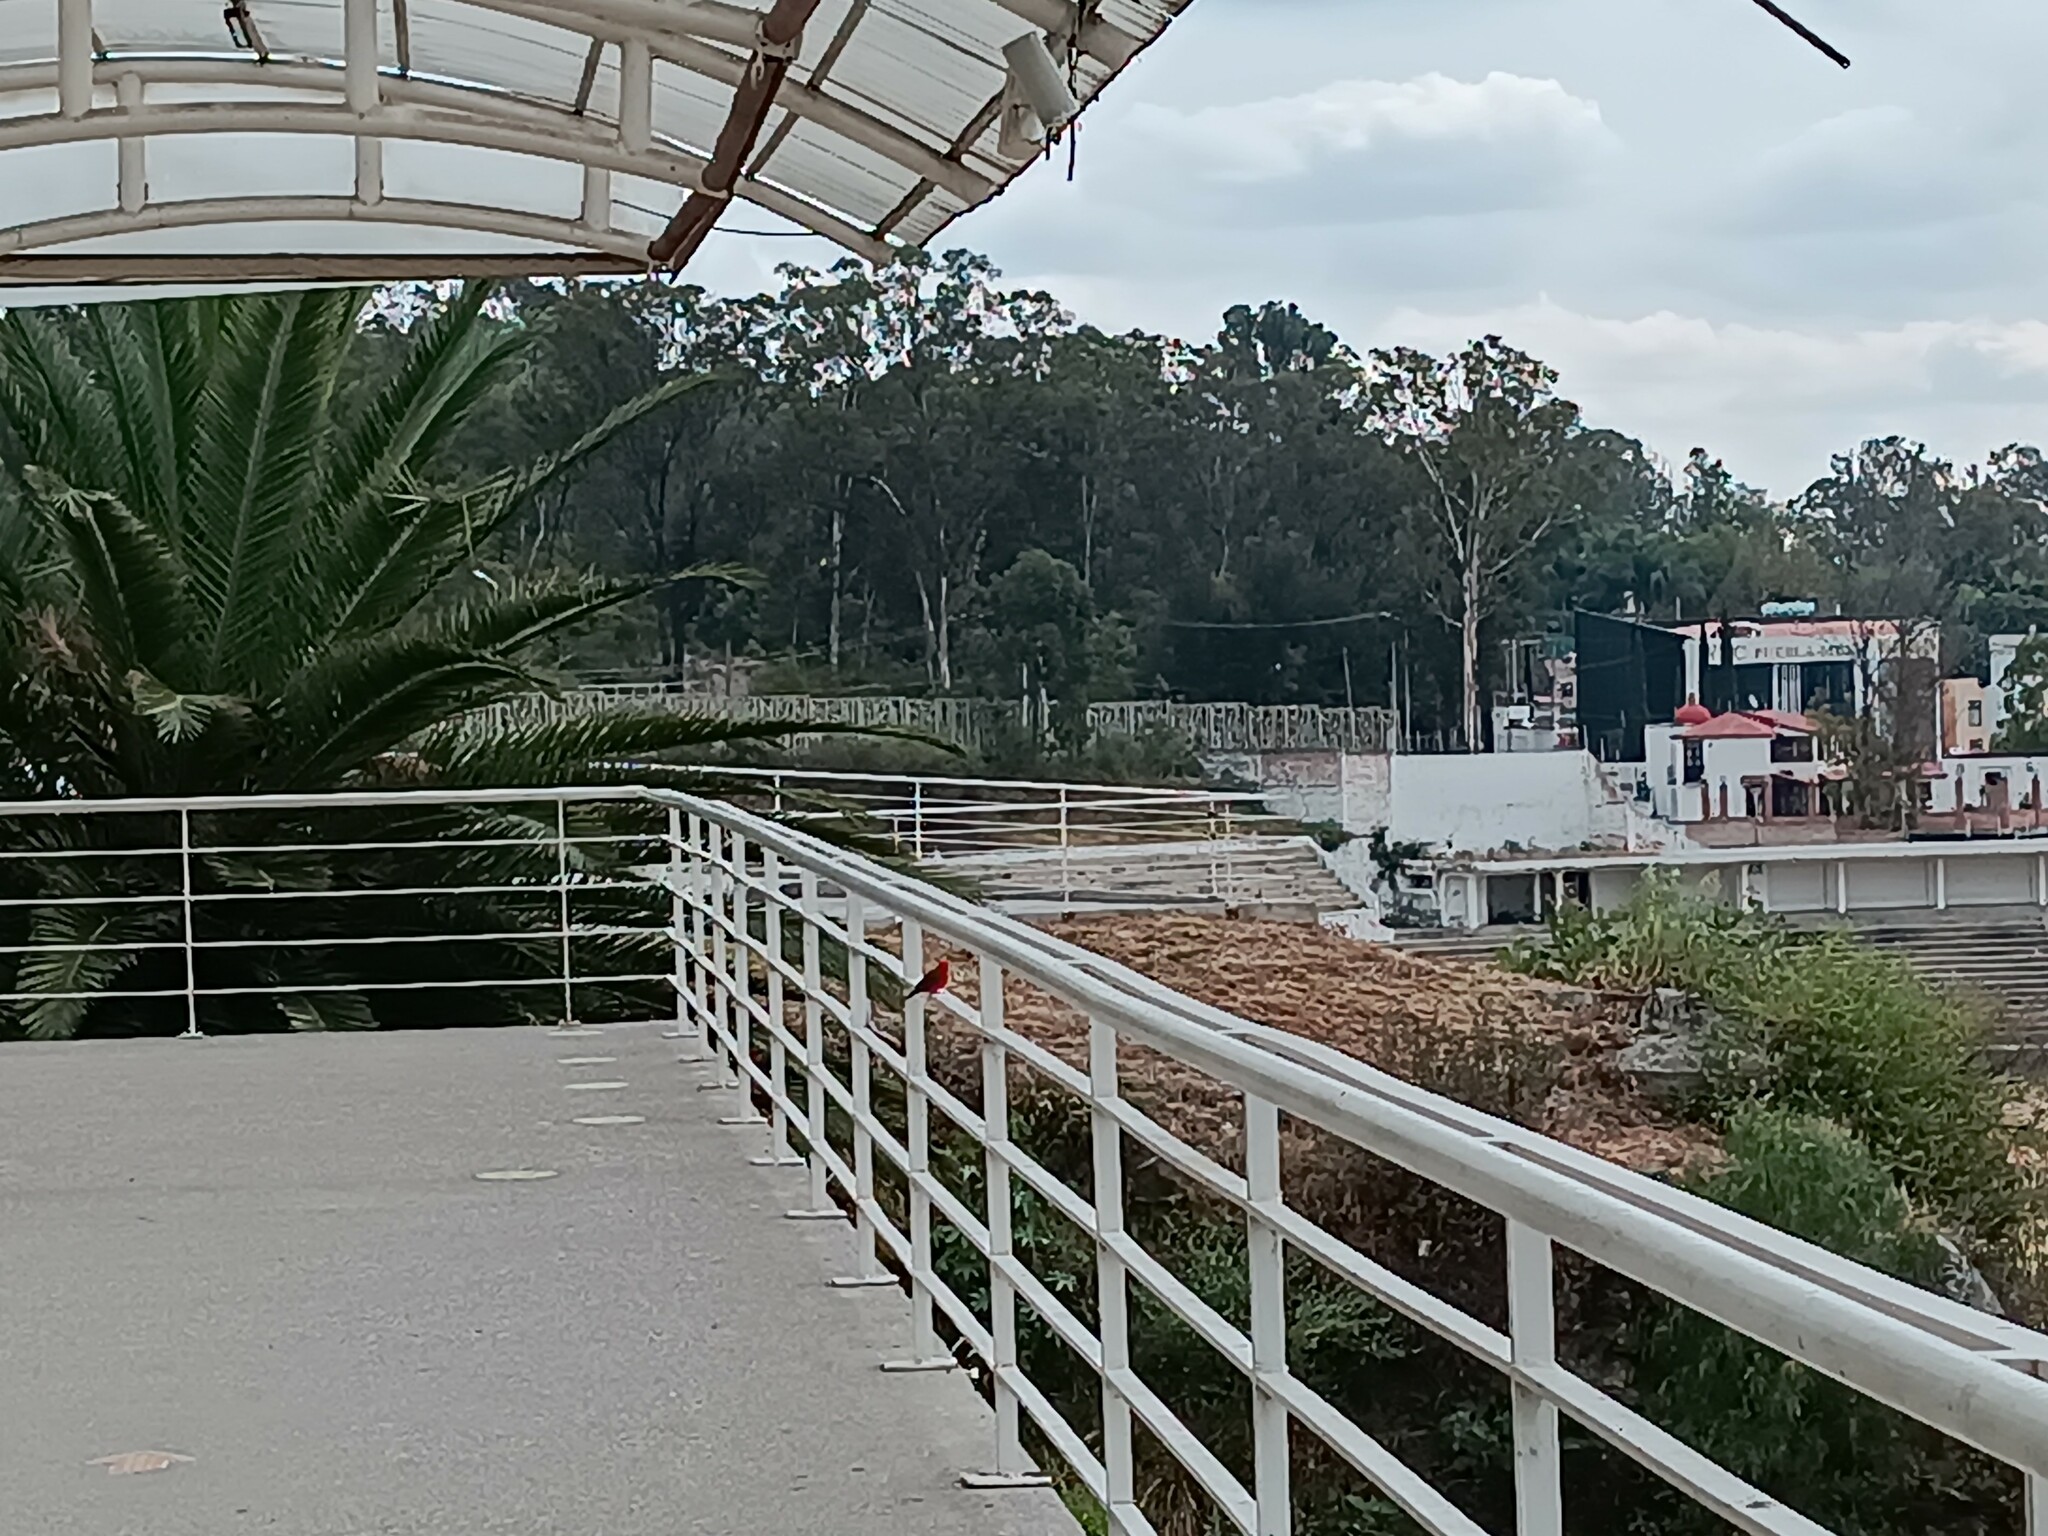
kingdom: Animalia
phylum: Chordata
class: Aves
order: Passeriformes
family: Tyrannidae
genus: Pyrocephalus
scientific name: Pyrocephalus rubinus
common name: Vermilion flycatcher
